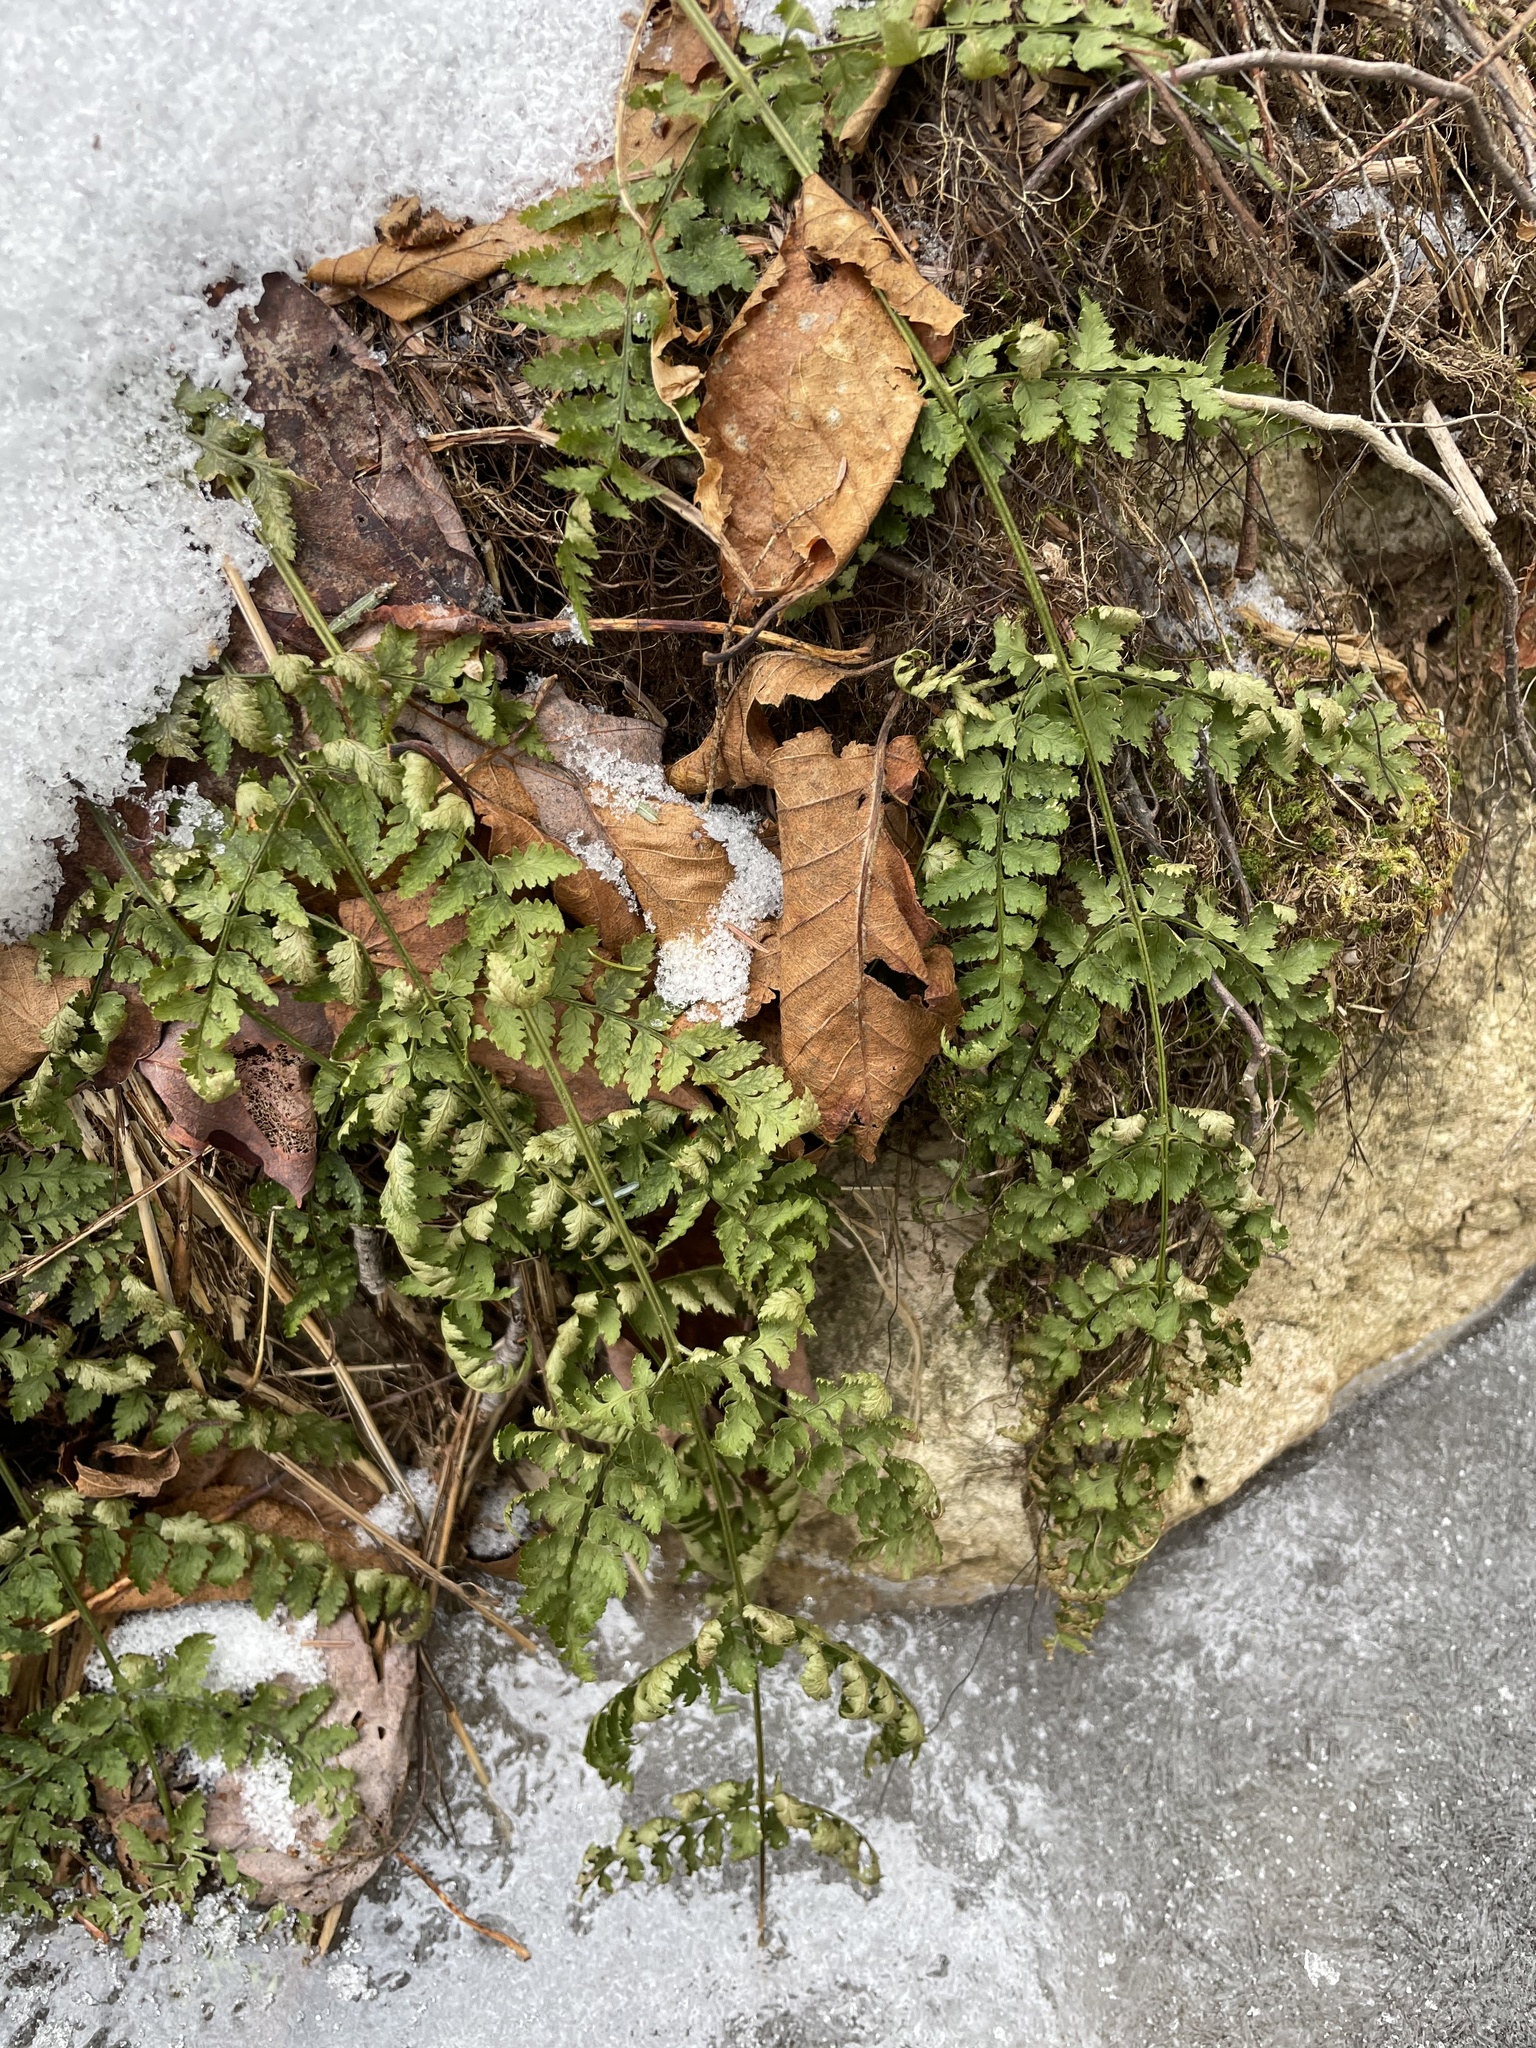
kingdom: Plantae
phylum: Tracheophyta
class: Polypodiopsida
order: Polypodiales
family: Dryopteridaceae
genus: Dryopteris
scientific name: Dryopteris intermedia
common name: Evergreen wood fern
